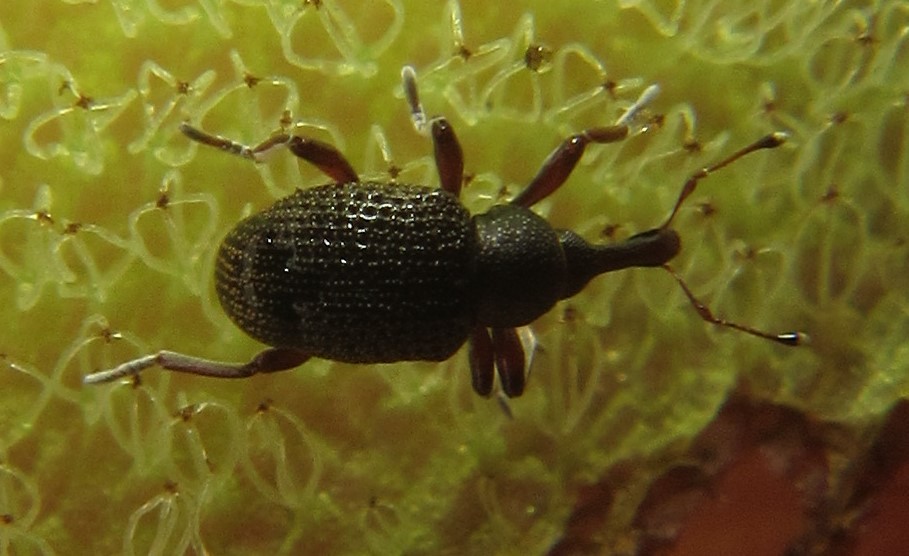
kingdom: Animalia
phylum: Arthropoda
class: Insecta
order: Coleoptera
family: Brachyceridae
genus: Cyrtobagous
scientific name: Cyrtobagous salviniae
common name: Salvinia weevil
